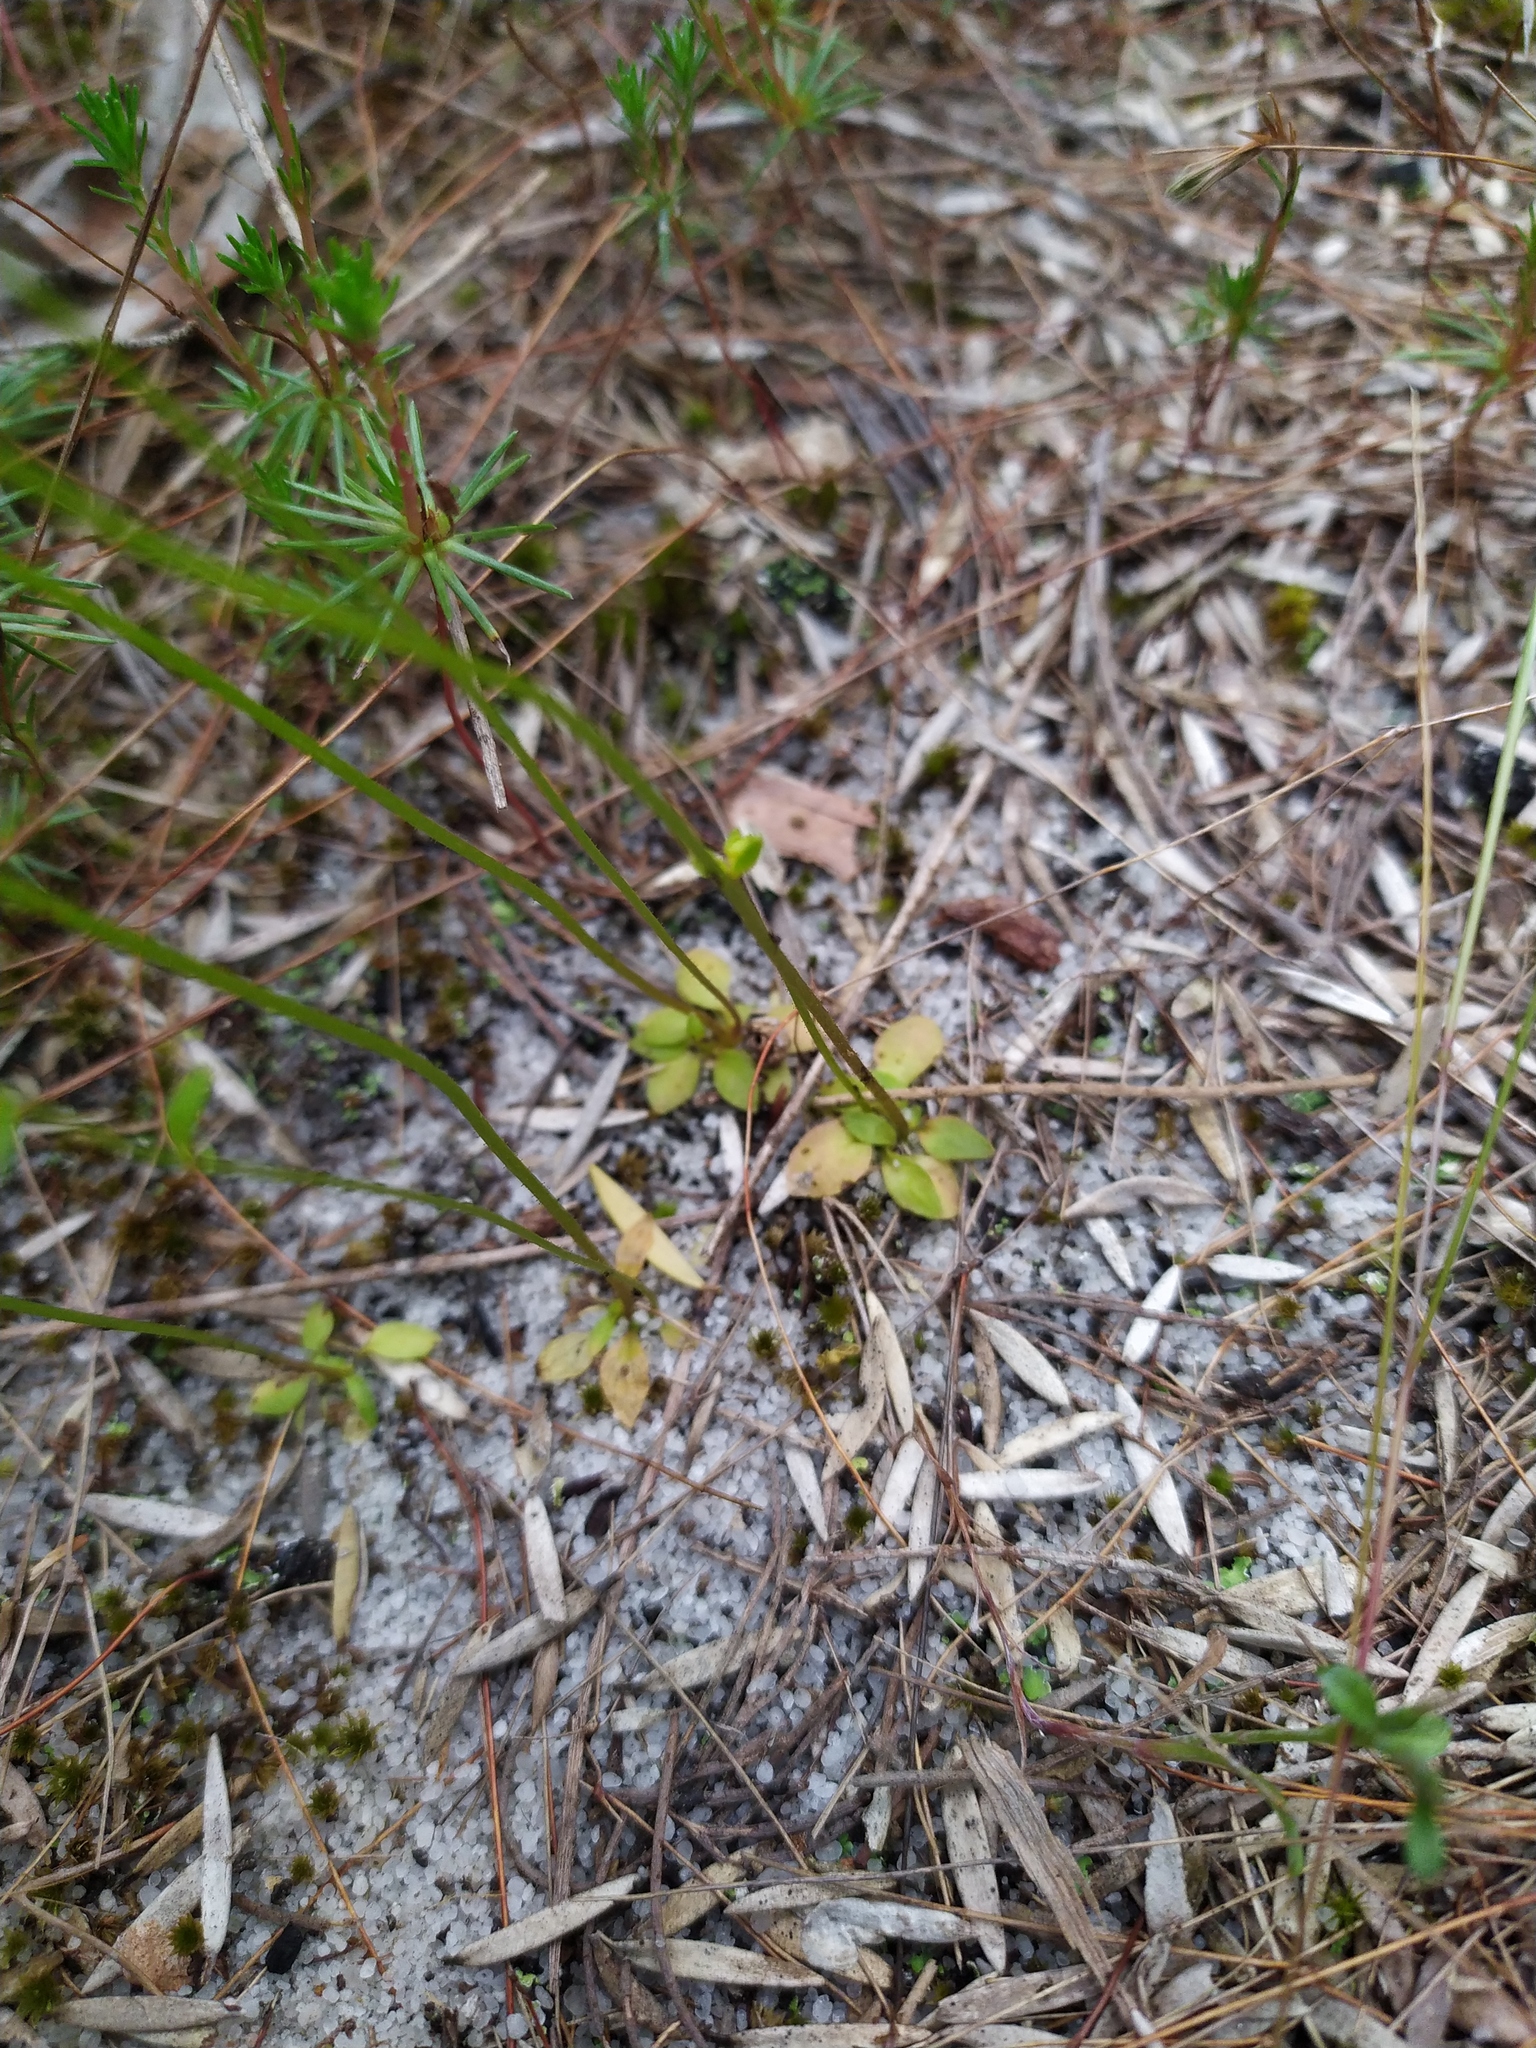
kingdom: Plantae
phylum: Tracheophyta
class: Magnoliopsida
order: Asterales
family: Stylidiaceae
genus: Stylidium
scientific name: Stylidium androsaceum
